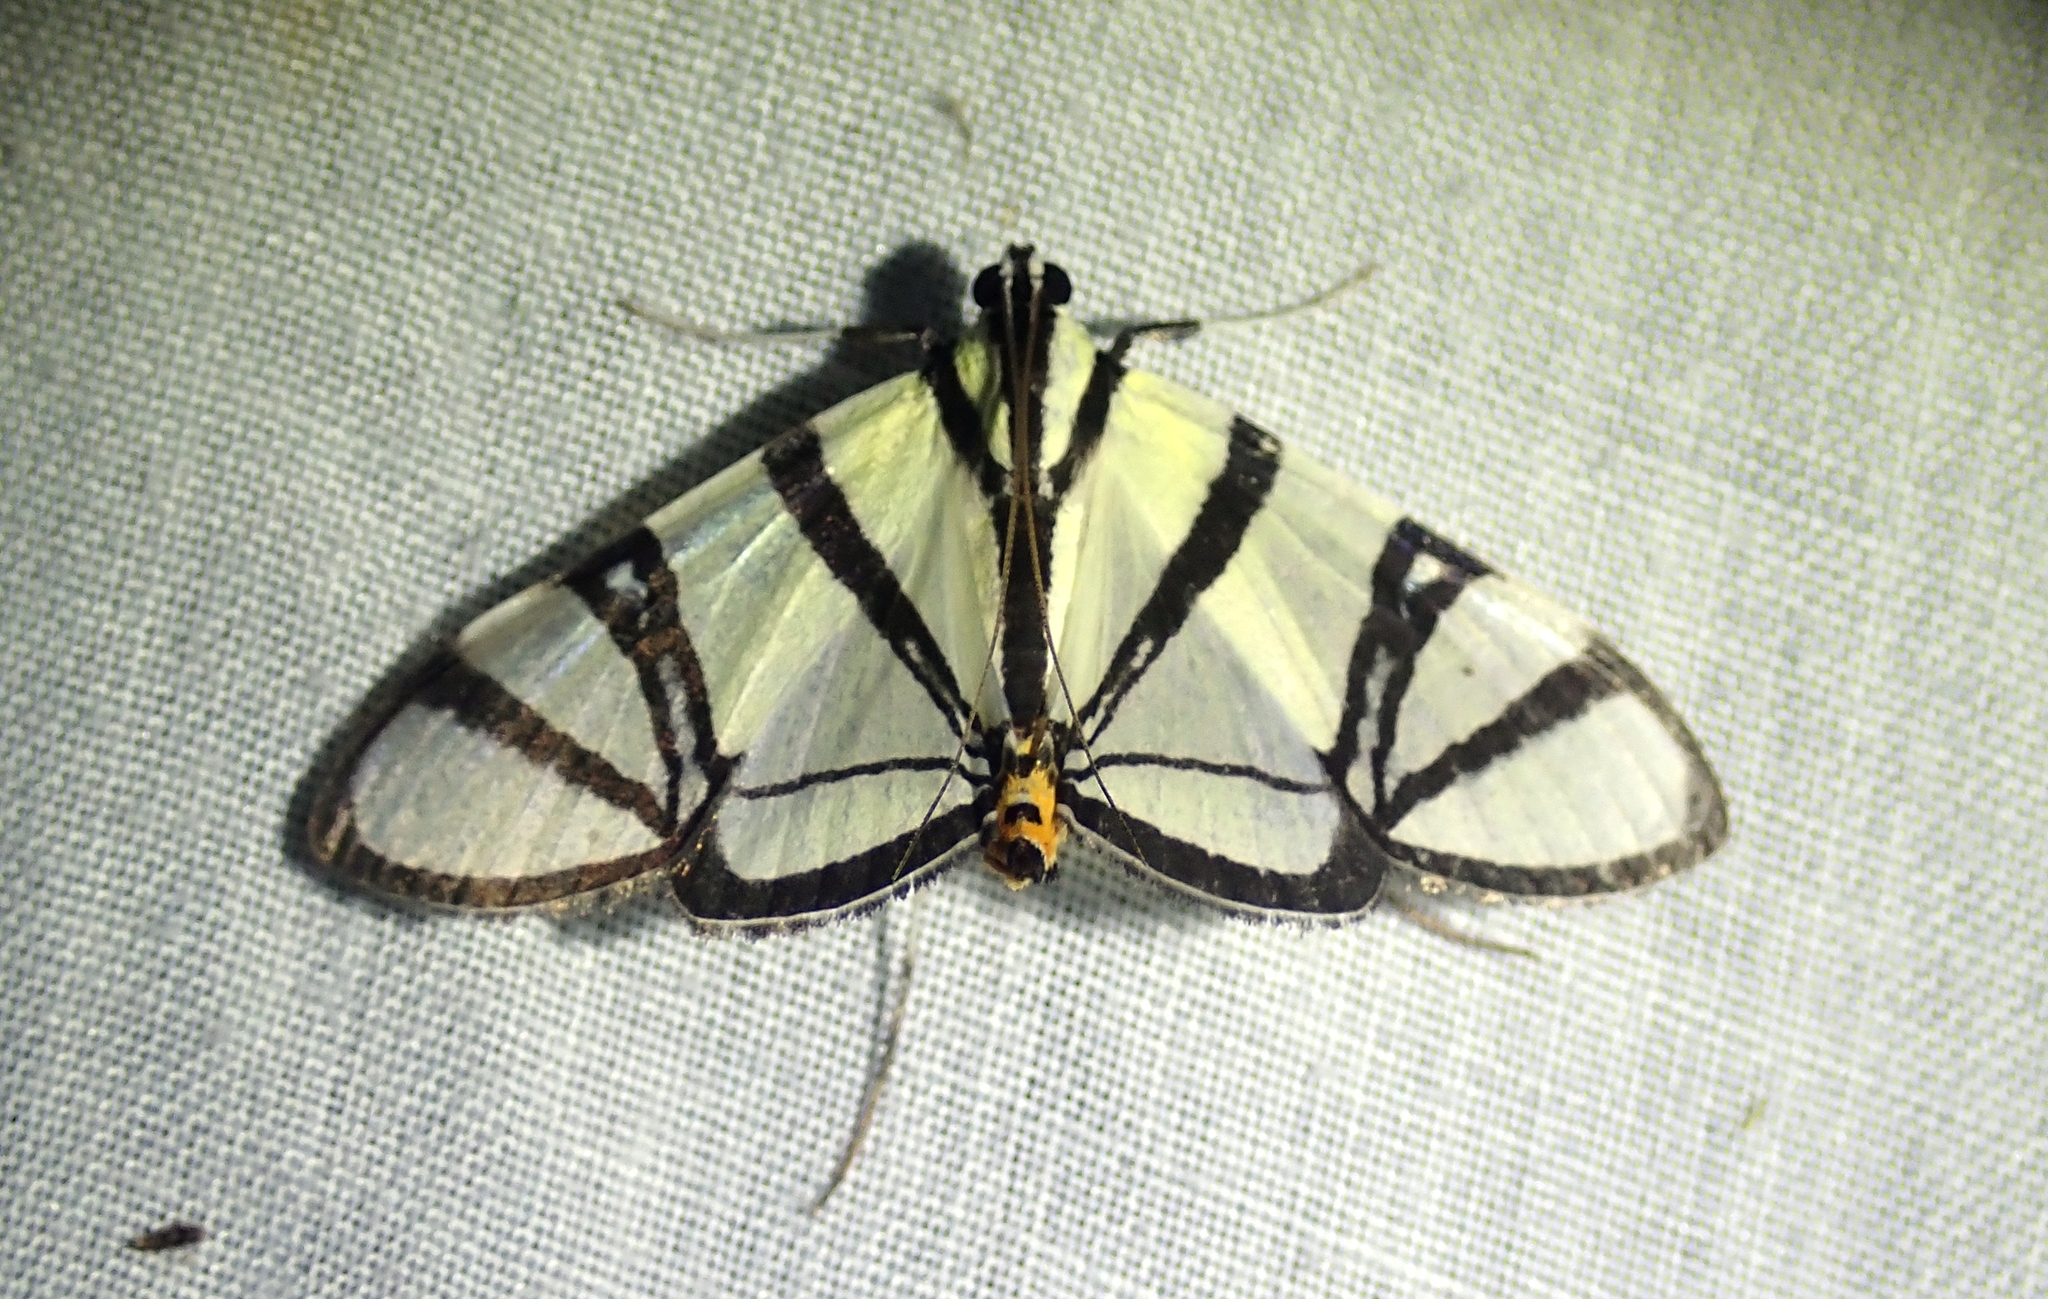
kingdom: Animalia
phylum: Arthropoda
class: Insecta
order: Lepidoptera
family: Crambidae
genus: Conchylodes
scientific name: Conchylodes nolckenialis
